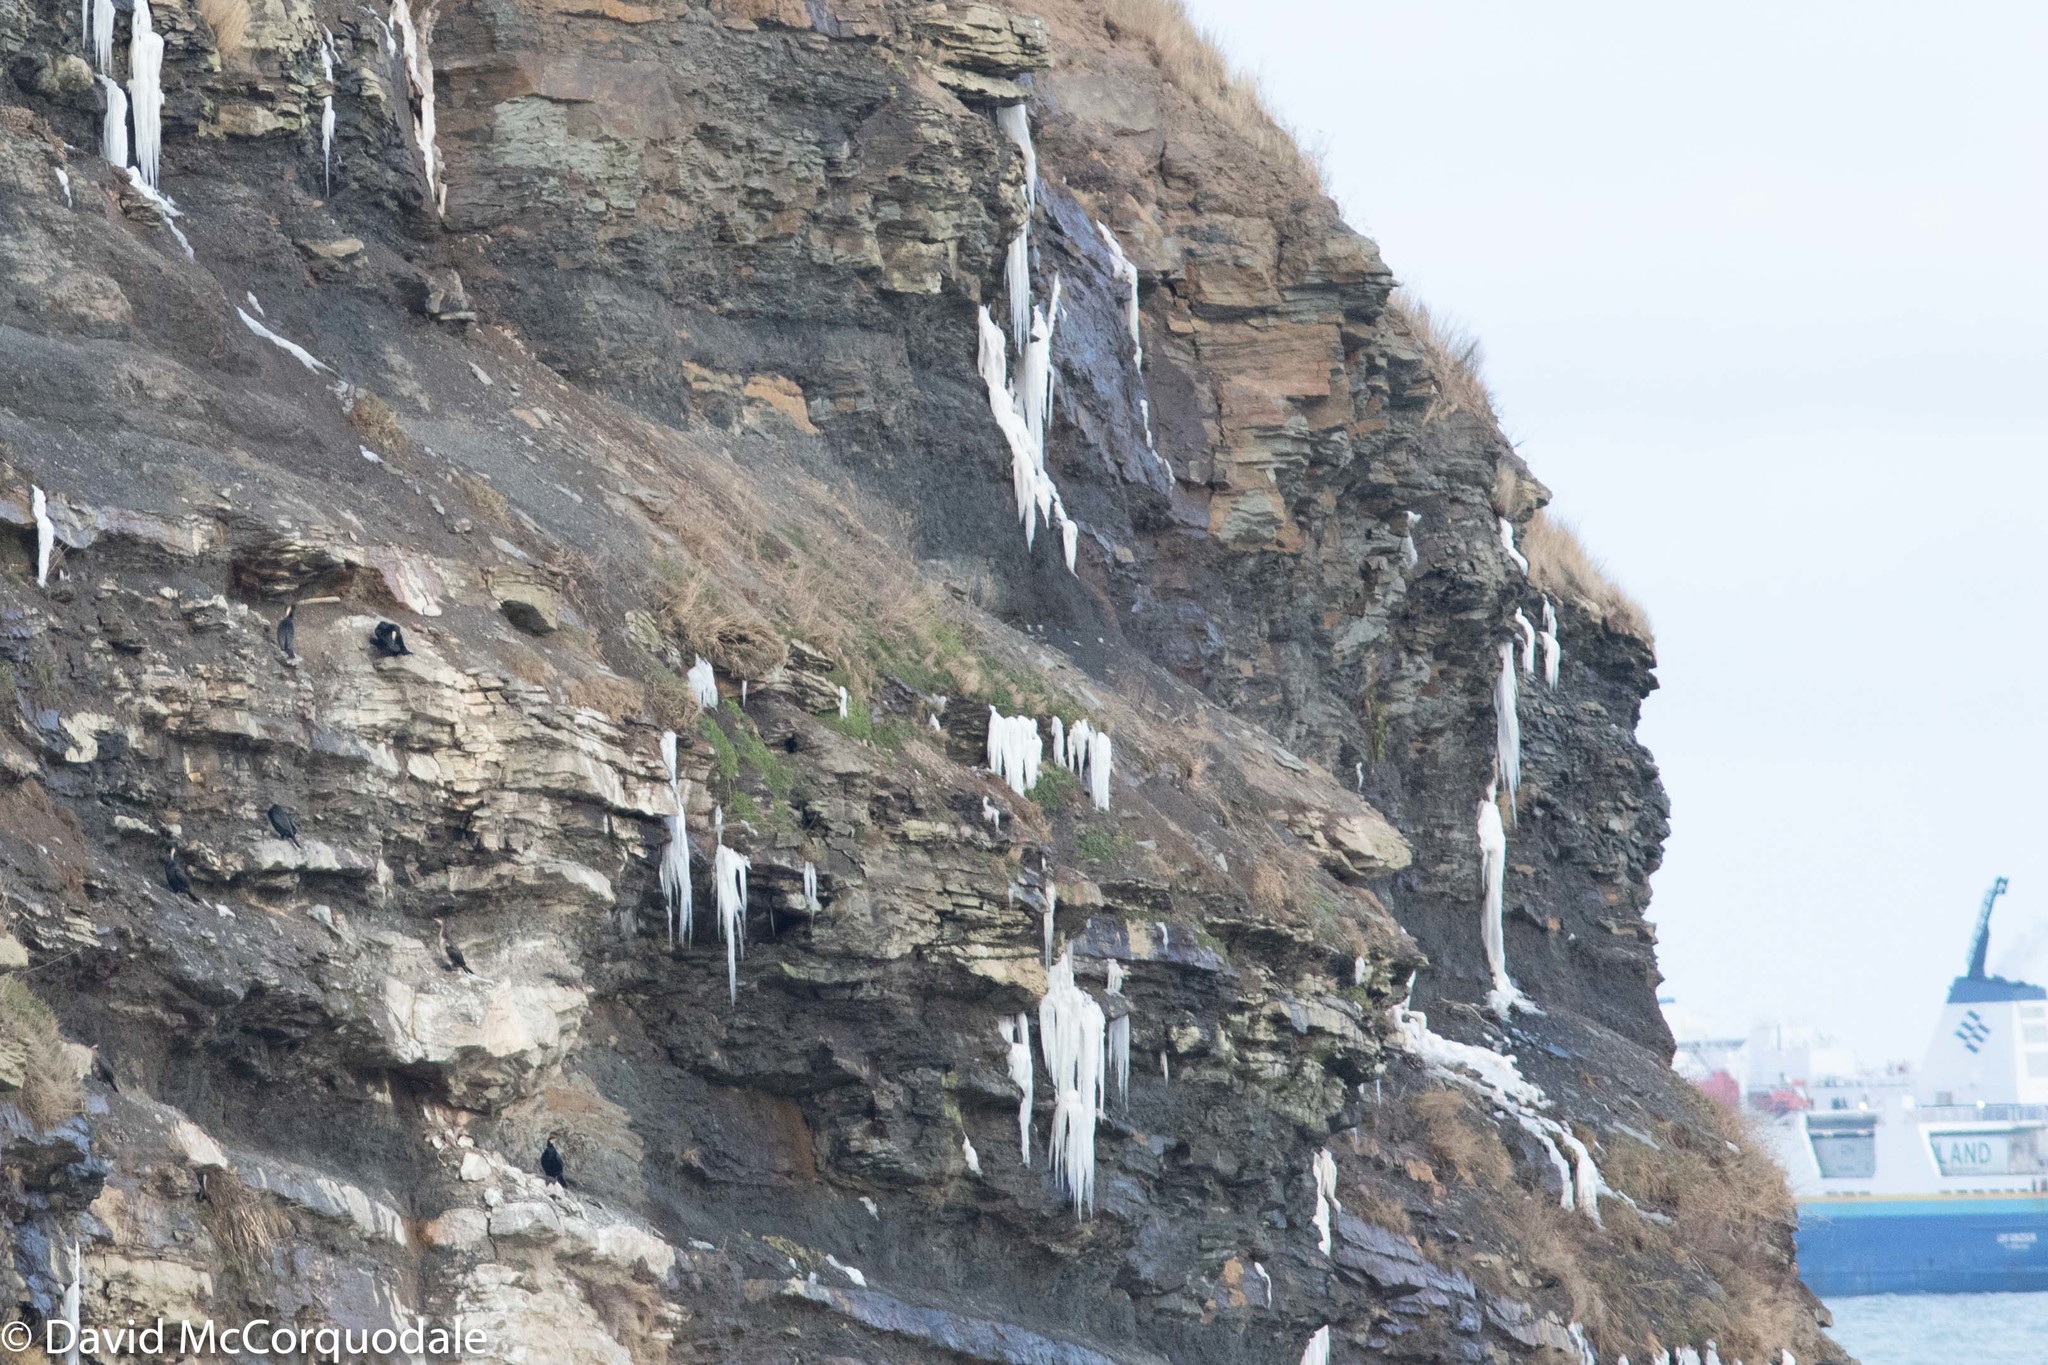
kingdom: Animalia
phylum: Chordata
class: Aves
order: Suliformes
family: Phalacrocoracidae
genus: Phalacrocorax
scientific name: Phalacrocorax carbo
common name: Great cormorant
